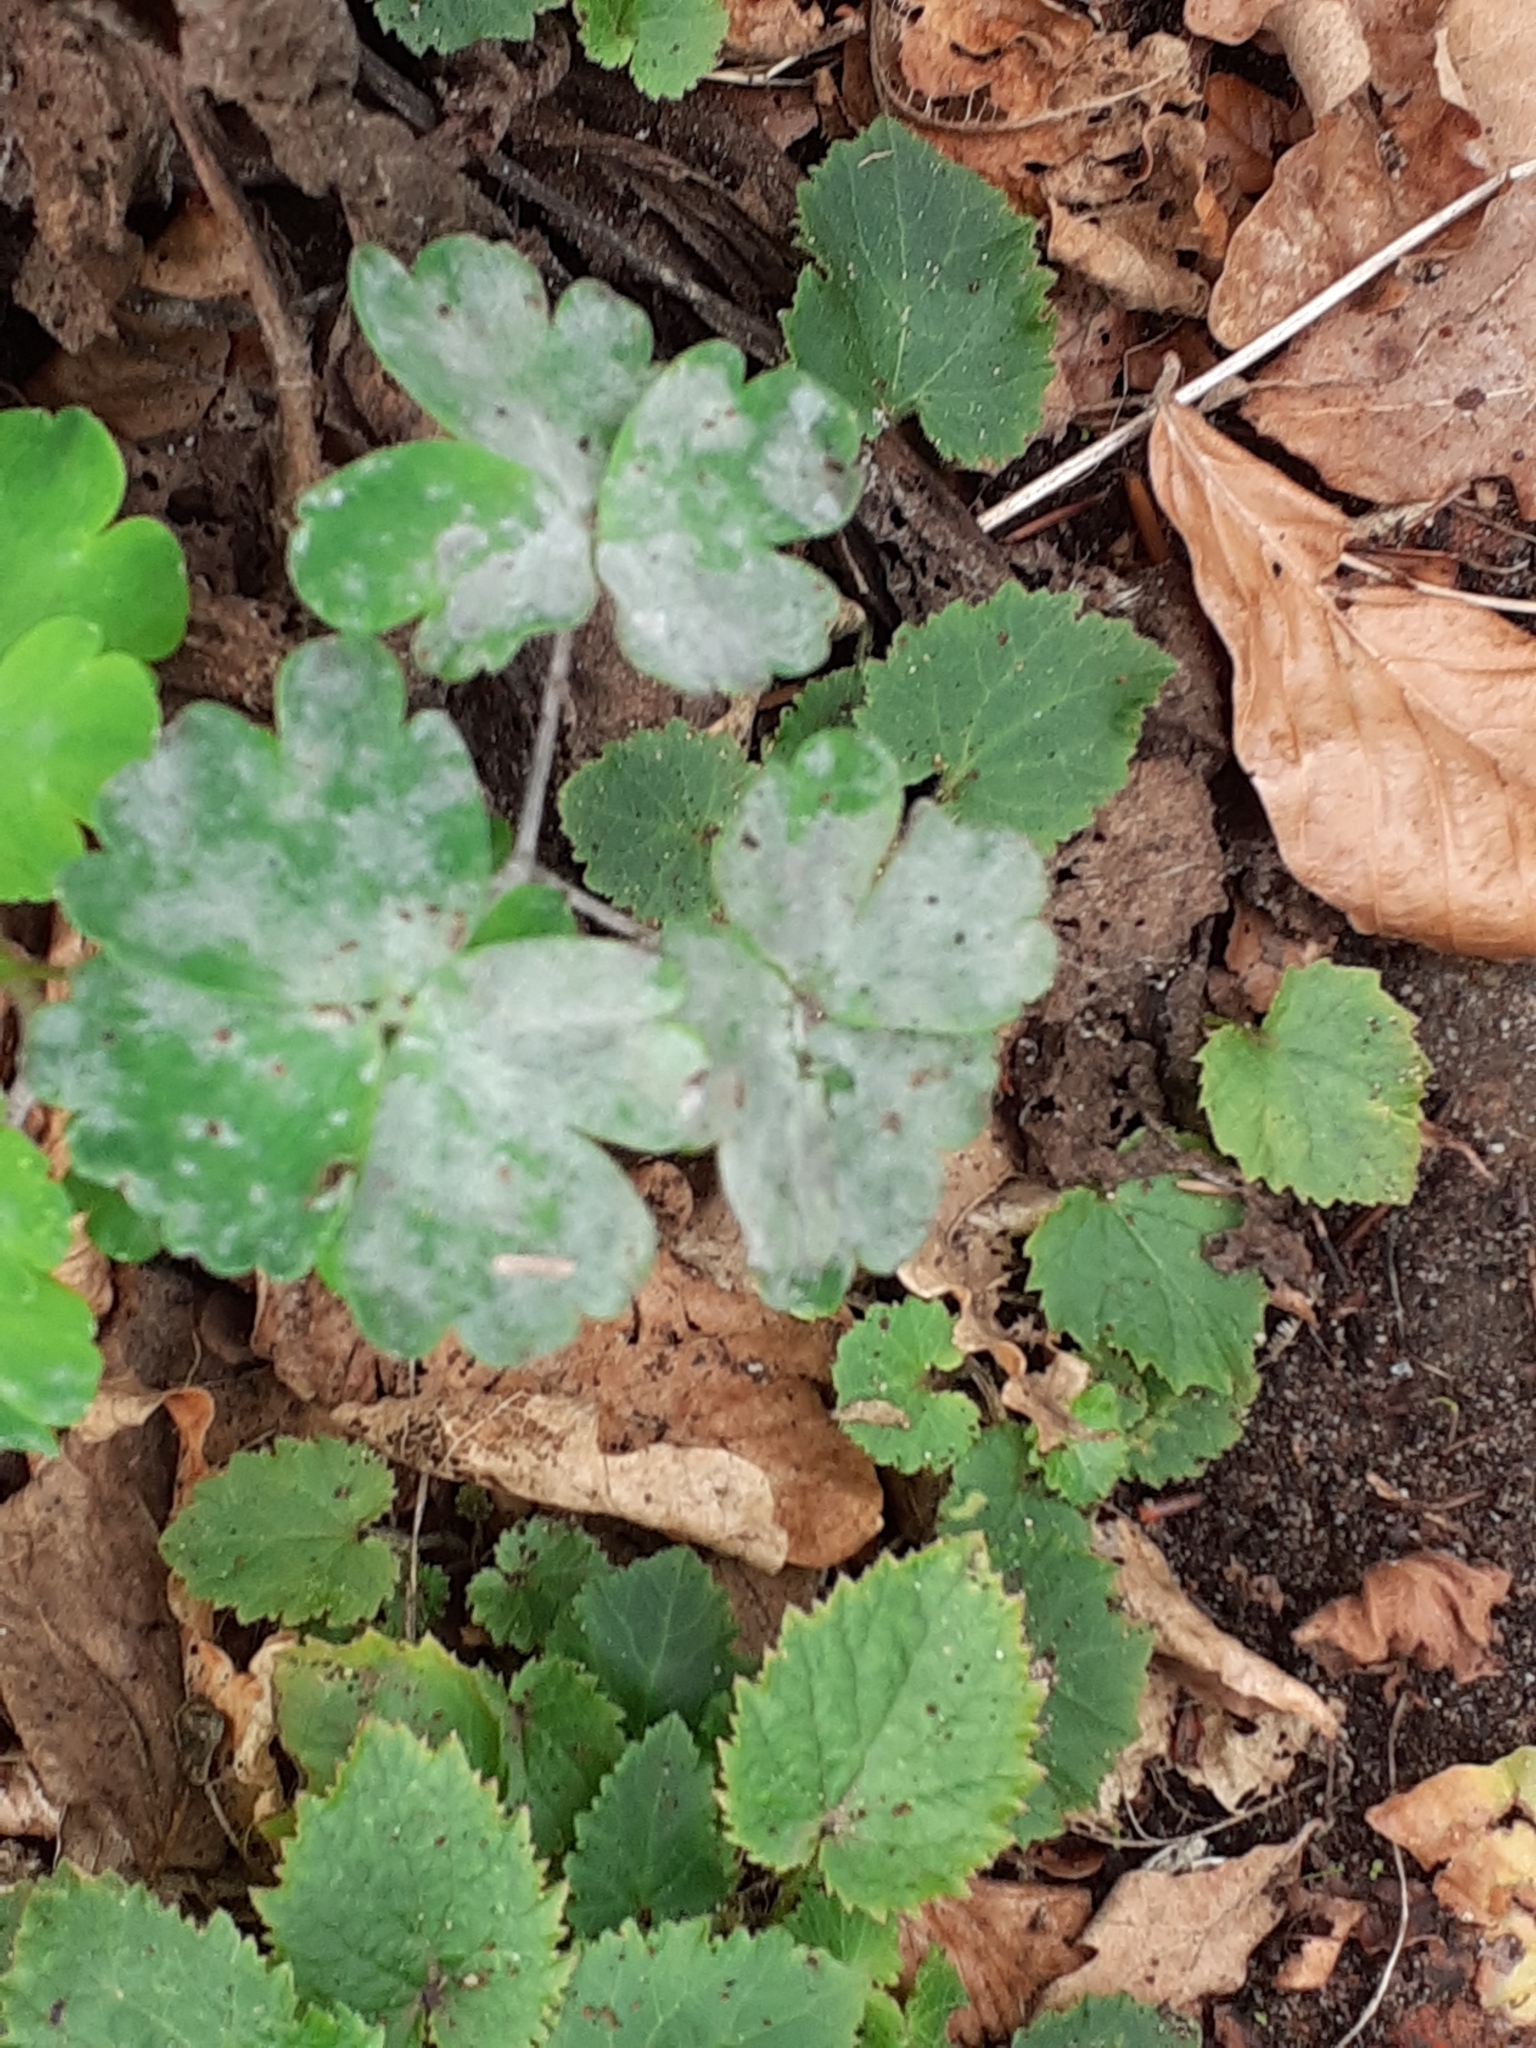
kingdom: Fungi
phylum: Ascomycota
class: Leotiomycetes
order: Helotiales
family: Erysiphaceae
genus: Erysiphe
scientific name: Erysiphe aquilegiae
